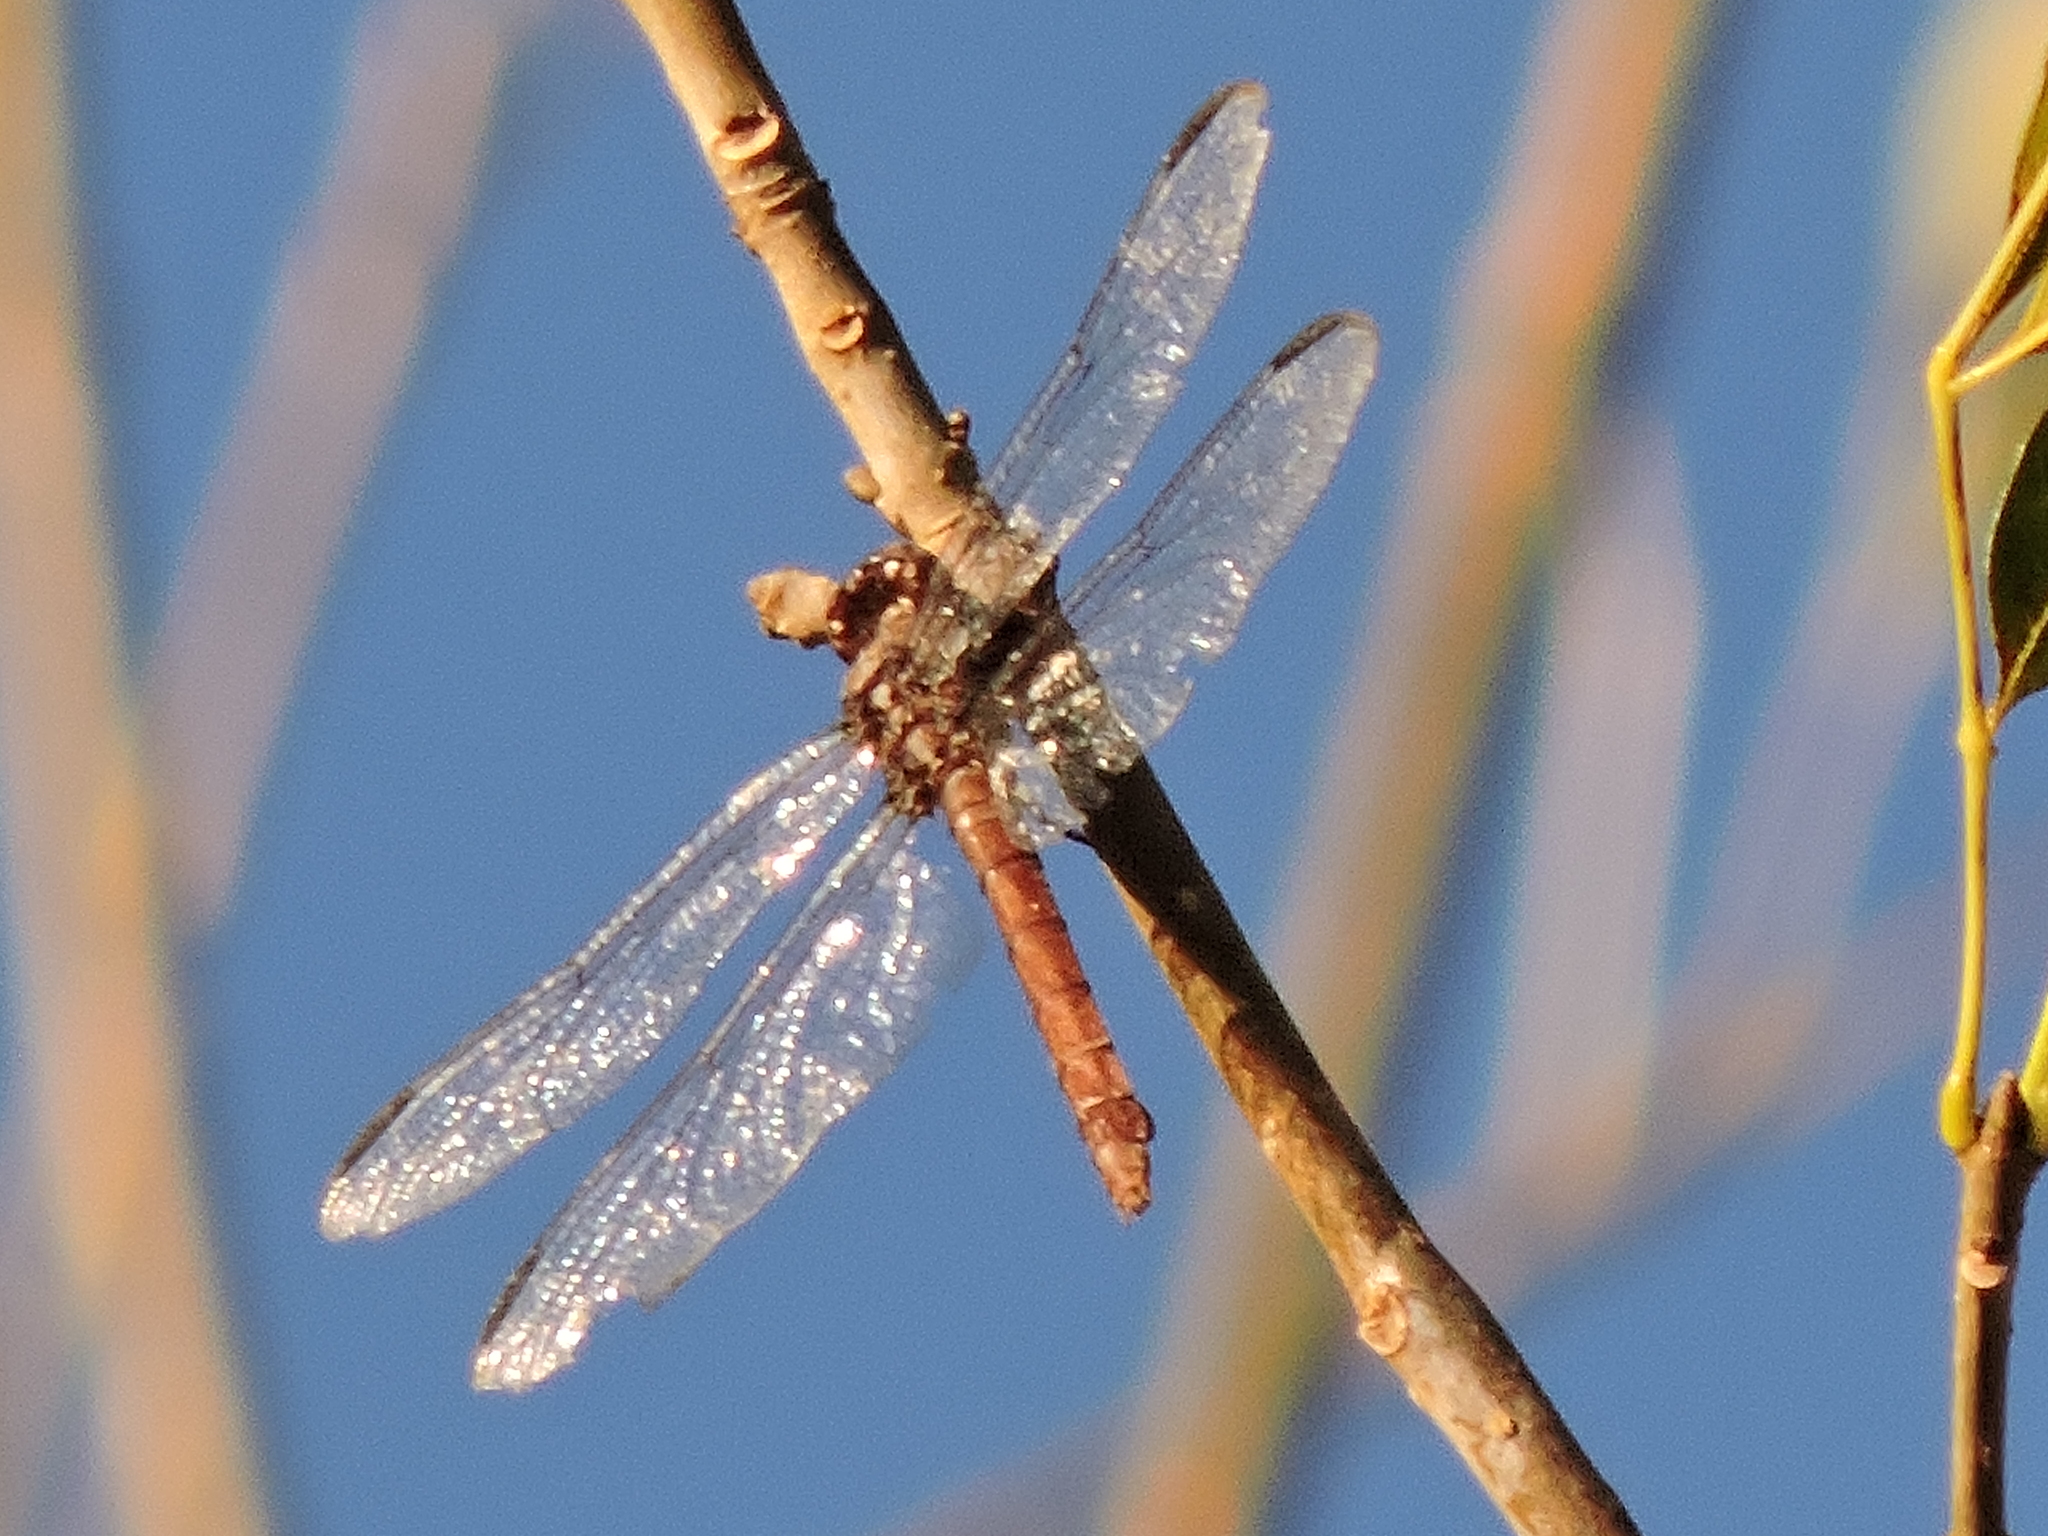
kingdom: Animalia
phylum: Arthropoda
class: Insecta
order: Odonata
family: Libellulidae
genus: Orthemis
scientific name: Orthemis ferruginea
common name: Roseate skimmer
